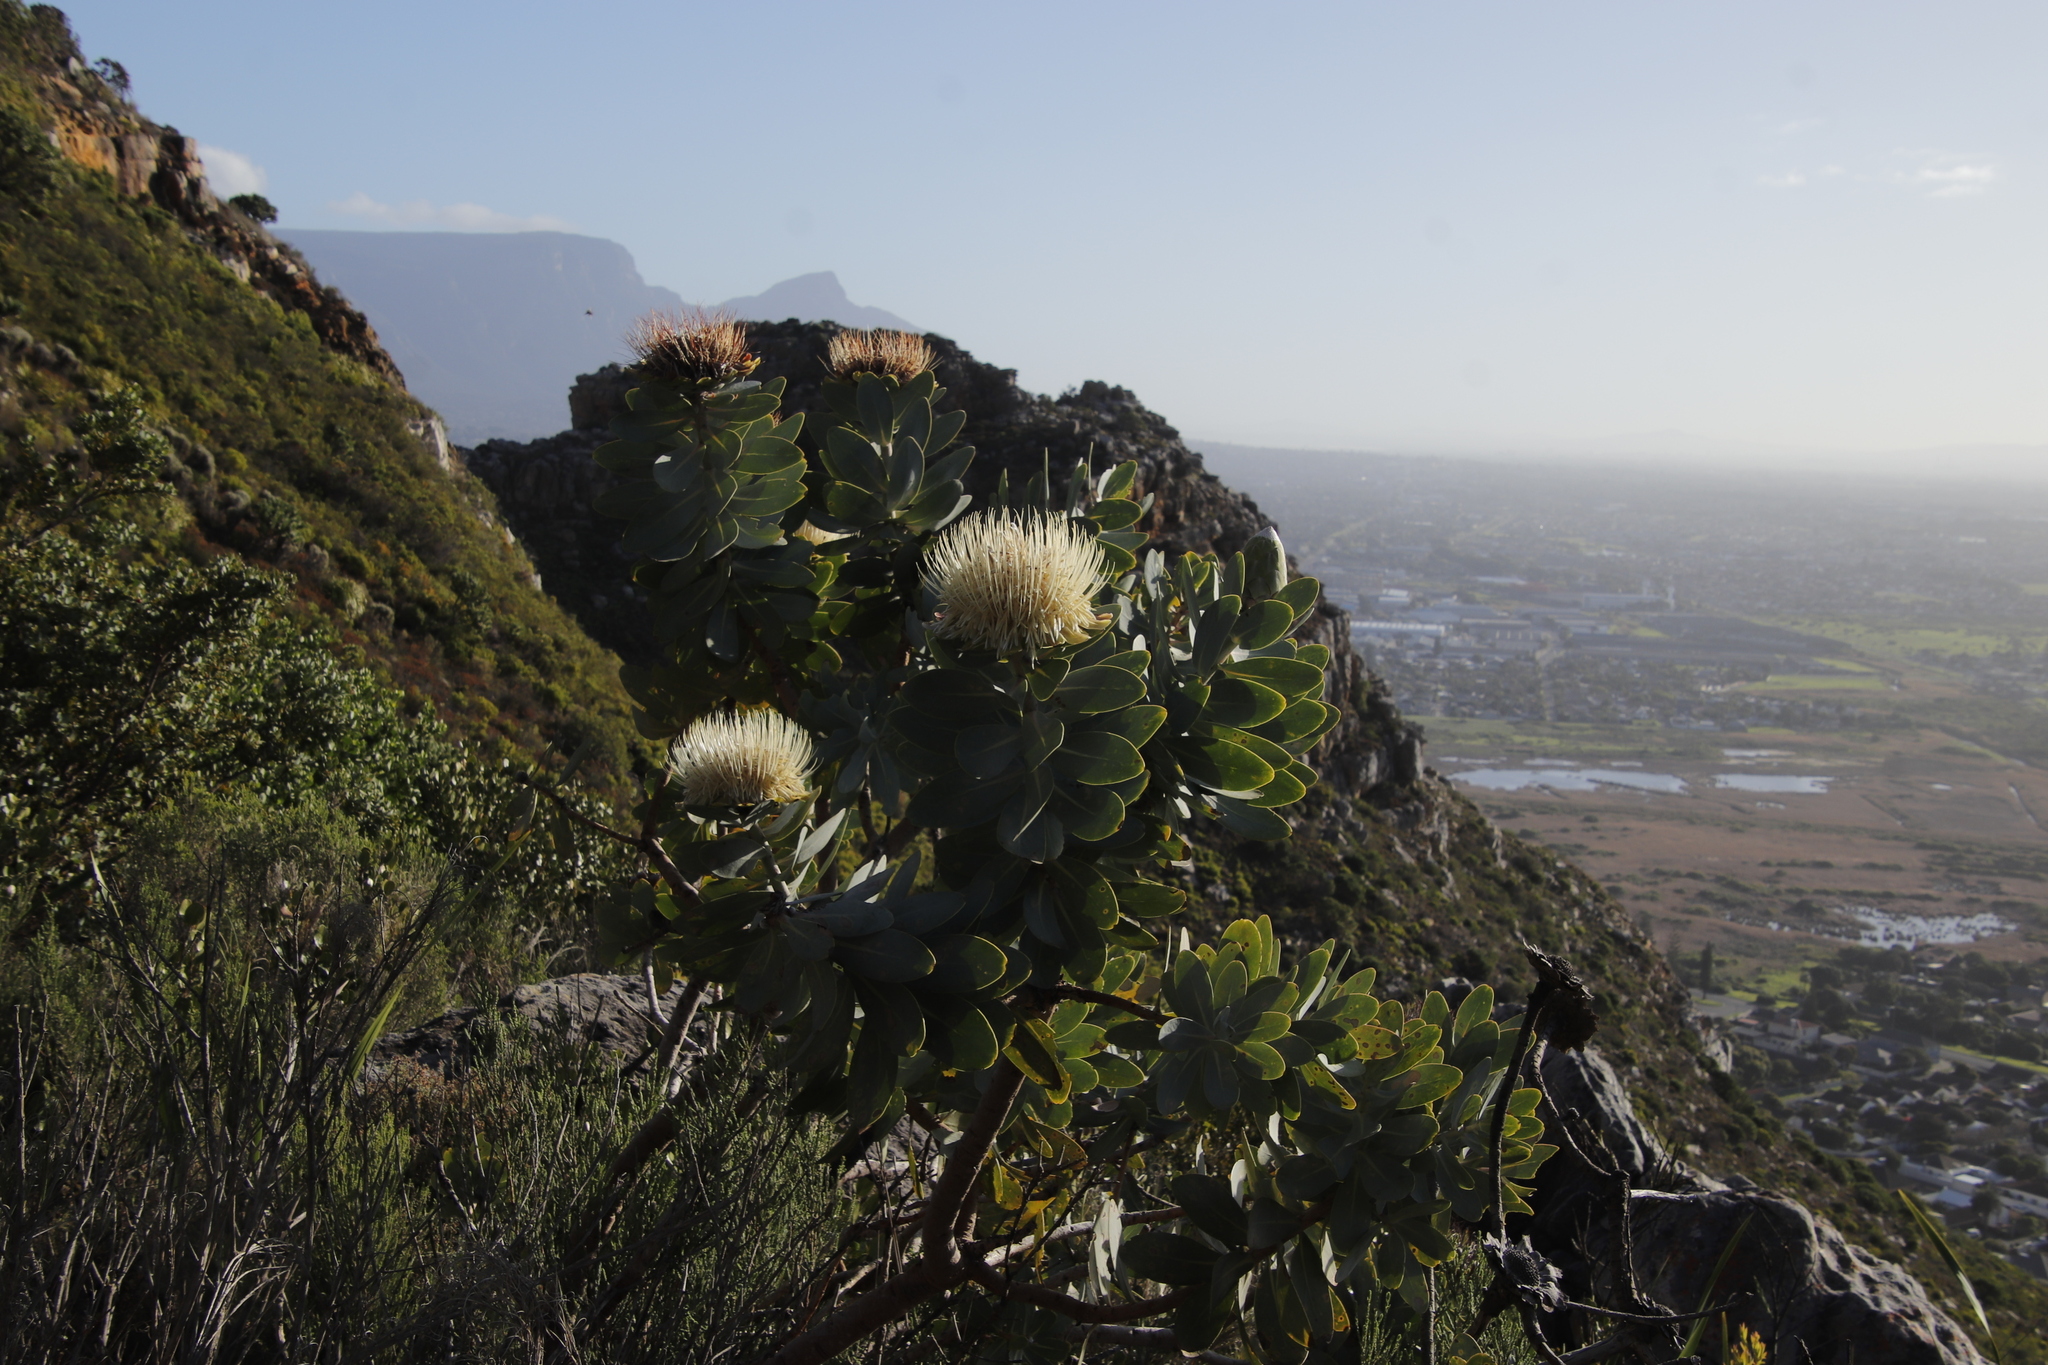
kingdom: Plantae
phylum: Tracheophyta
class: Magnoliopsida
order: Proteales
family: Proteaceae
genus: Protea
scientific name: Protea nitida
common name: Tree protea
